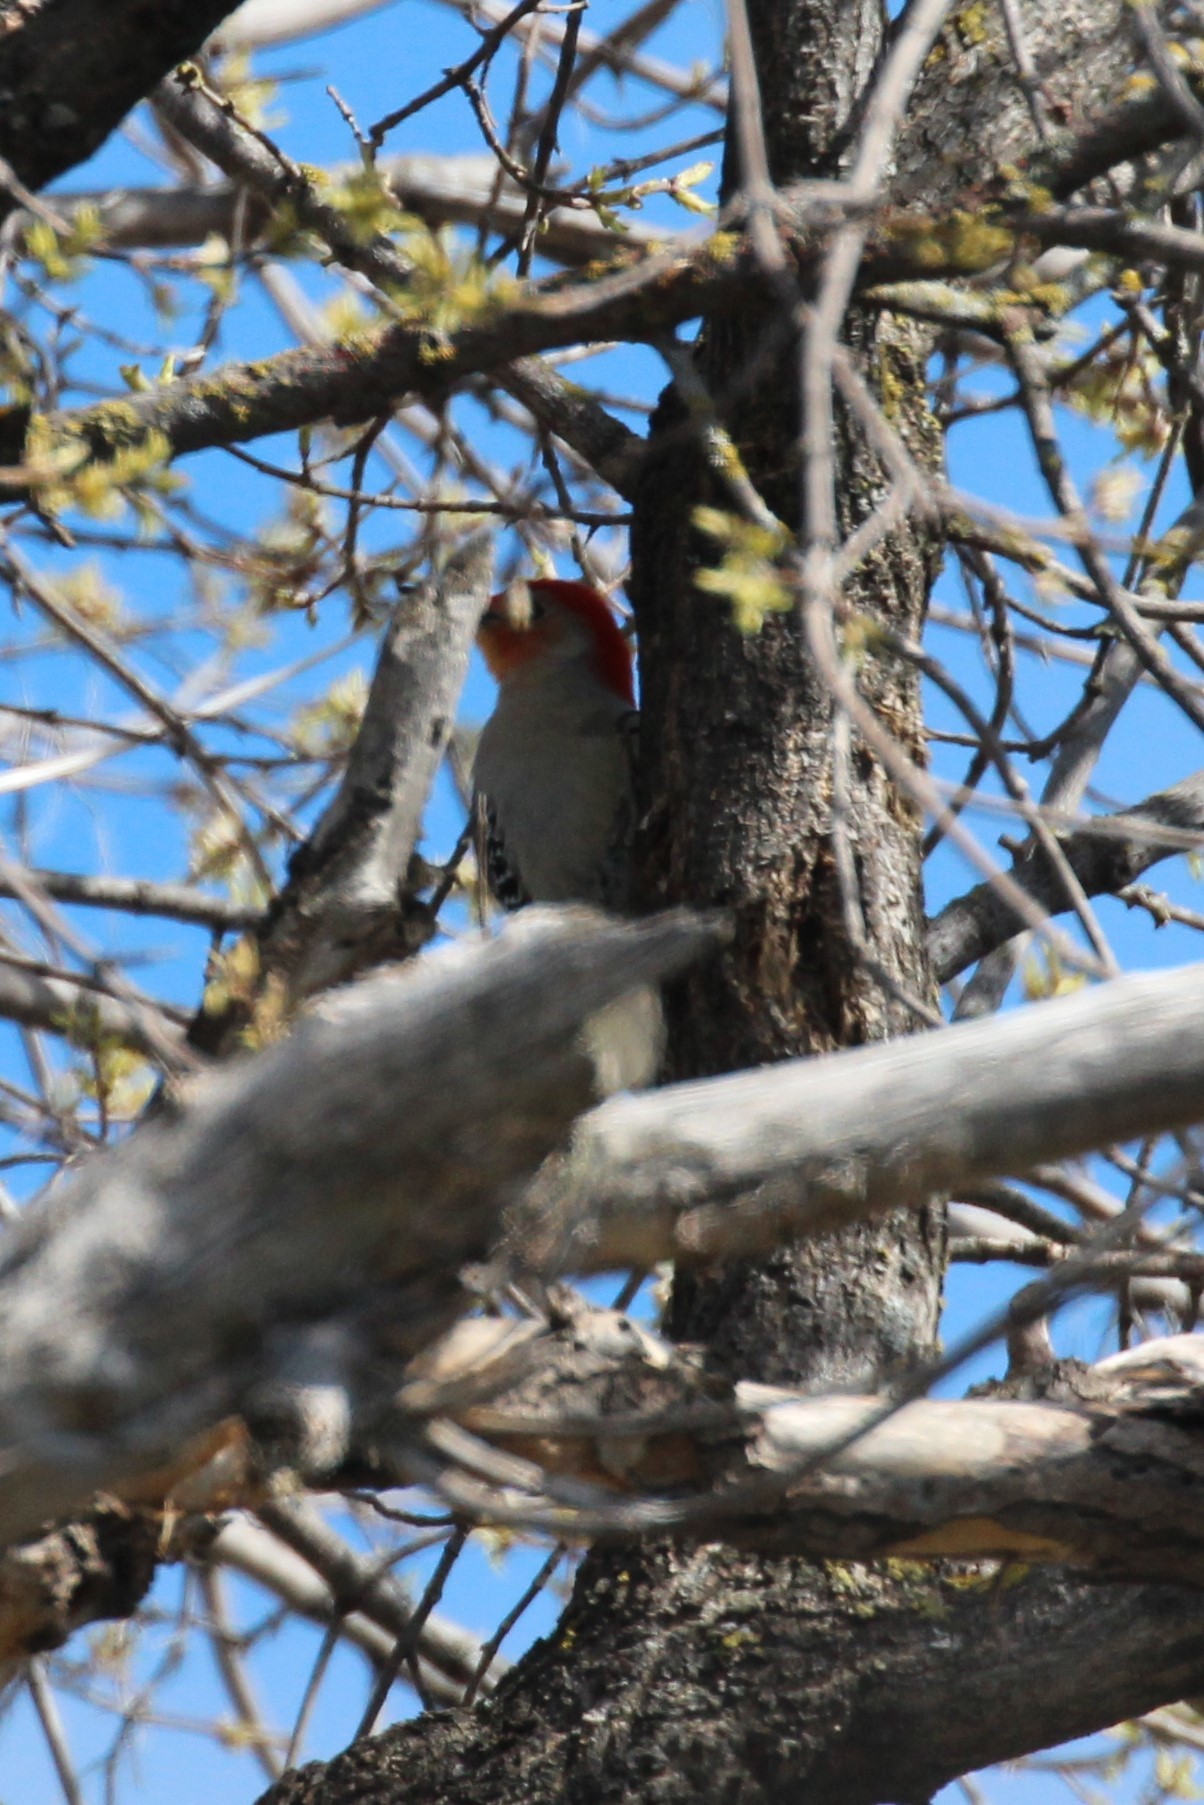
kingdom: Animalia
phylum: Chordata
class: Aves
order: Piciformes
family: Picidae
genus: Melanerpes
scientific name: Melanerpes carolinus
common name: Red-bellied woodpecker
